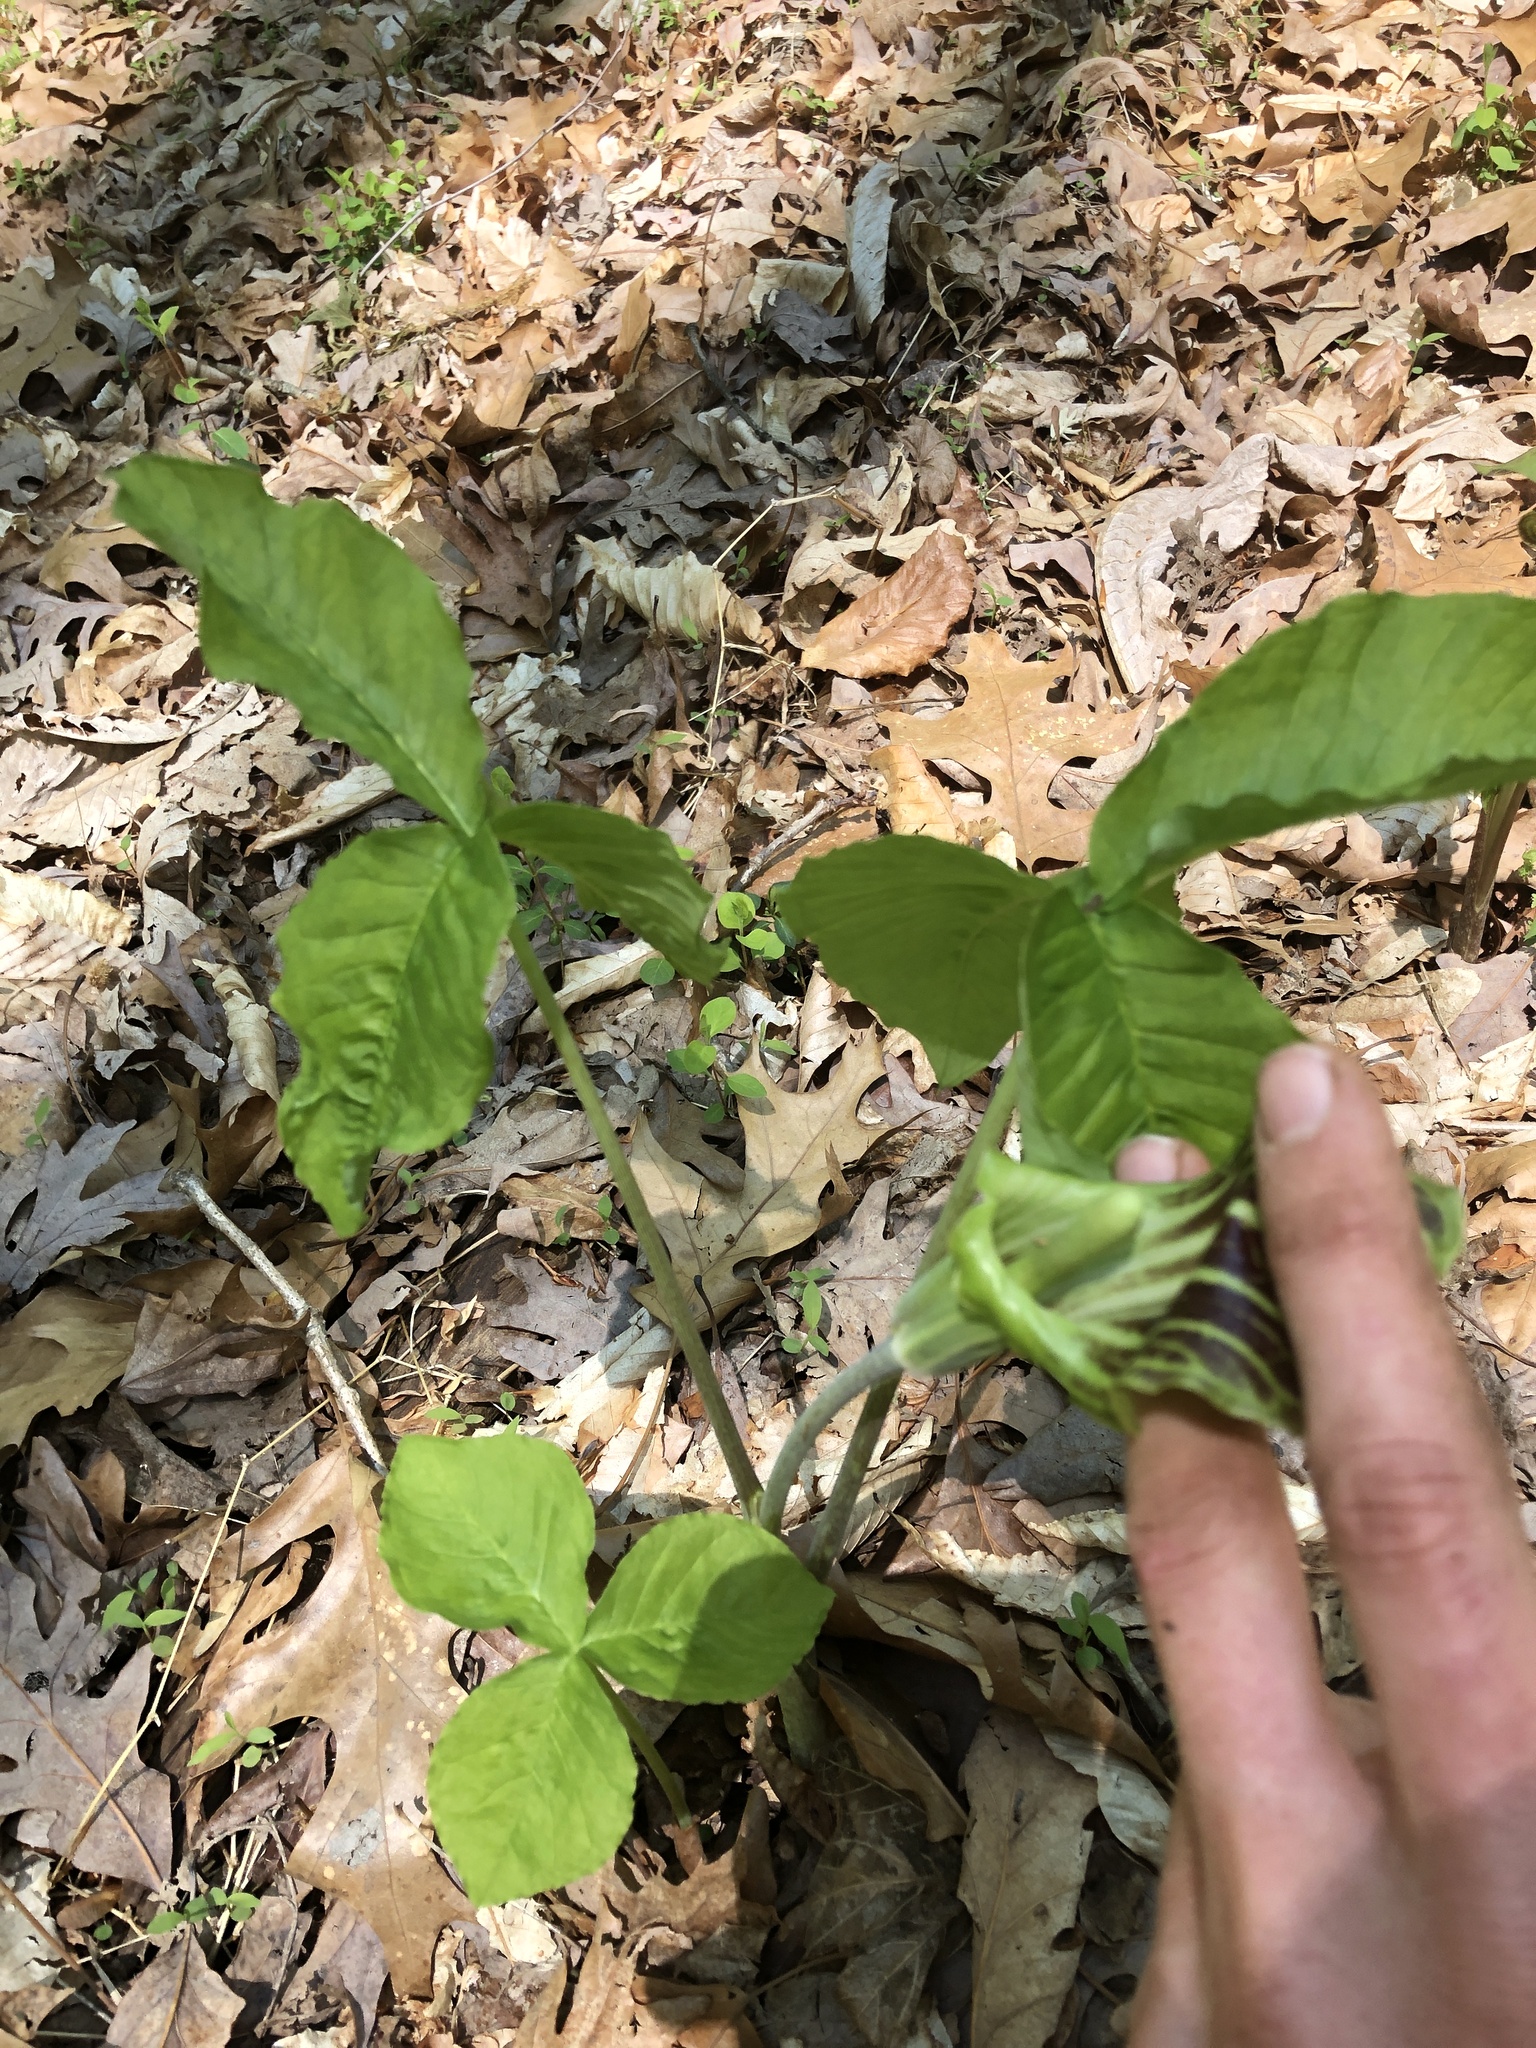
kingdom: Plantae
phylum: Tracheophyta
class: Liliopsida
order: Alismatales
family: Araceae
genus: Arisaema
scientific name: Arisaema triphyllum
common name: Jack-in-the-pulpit
